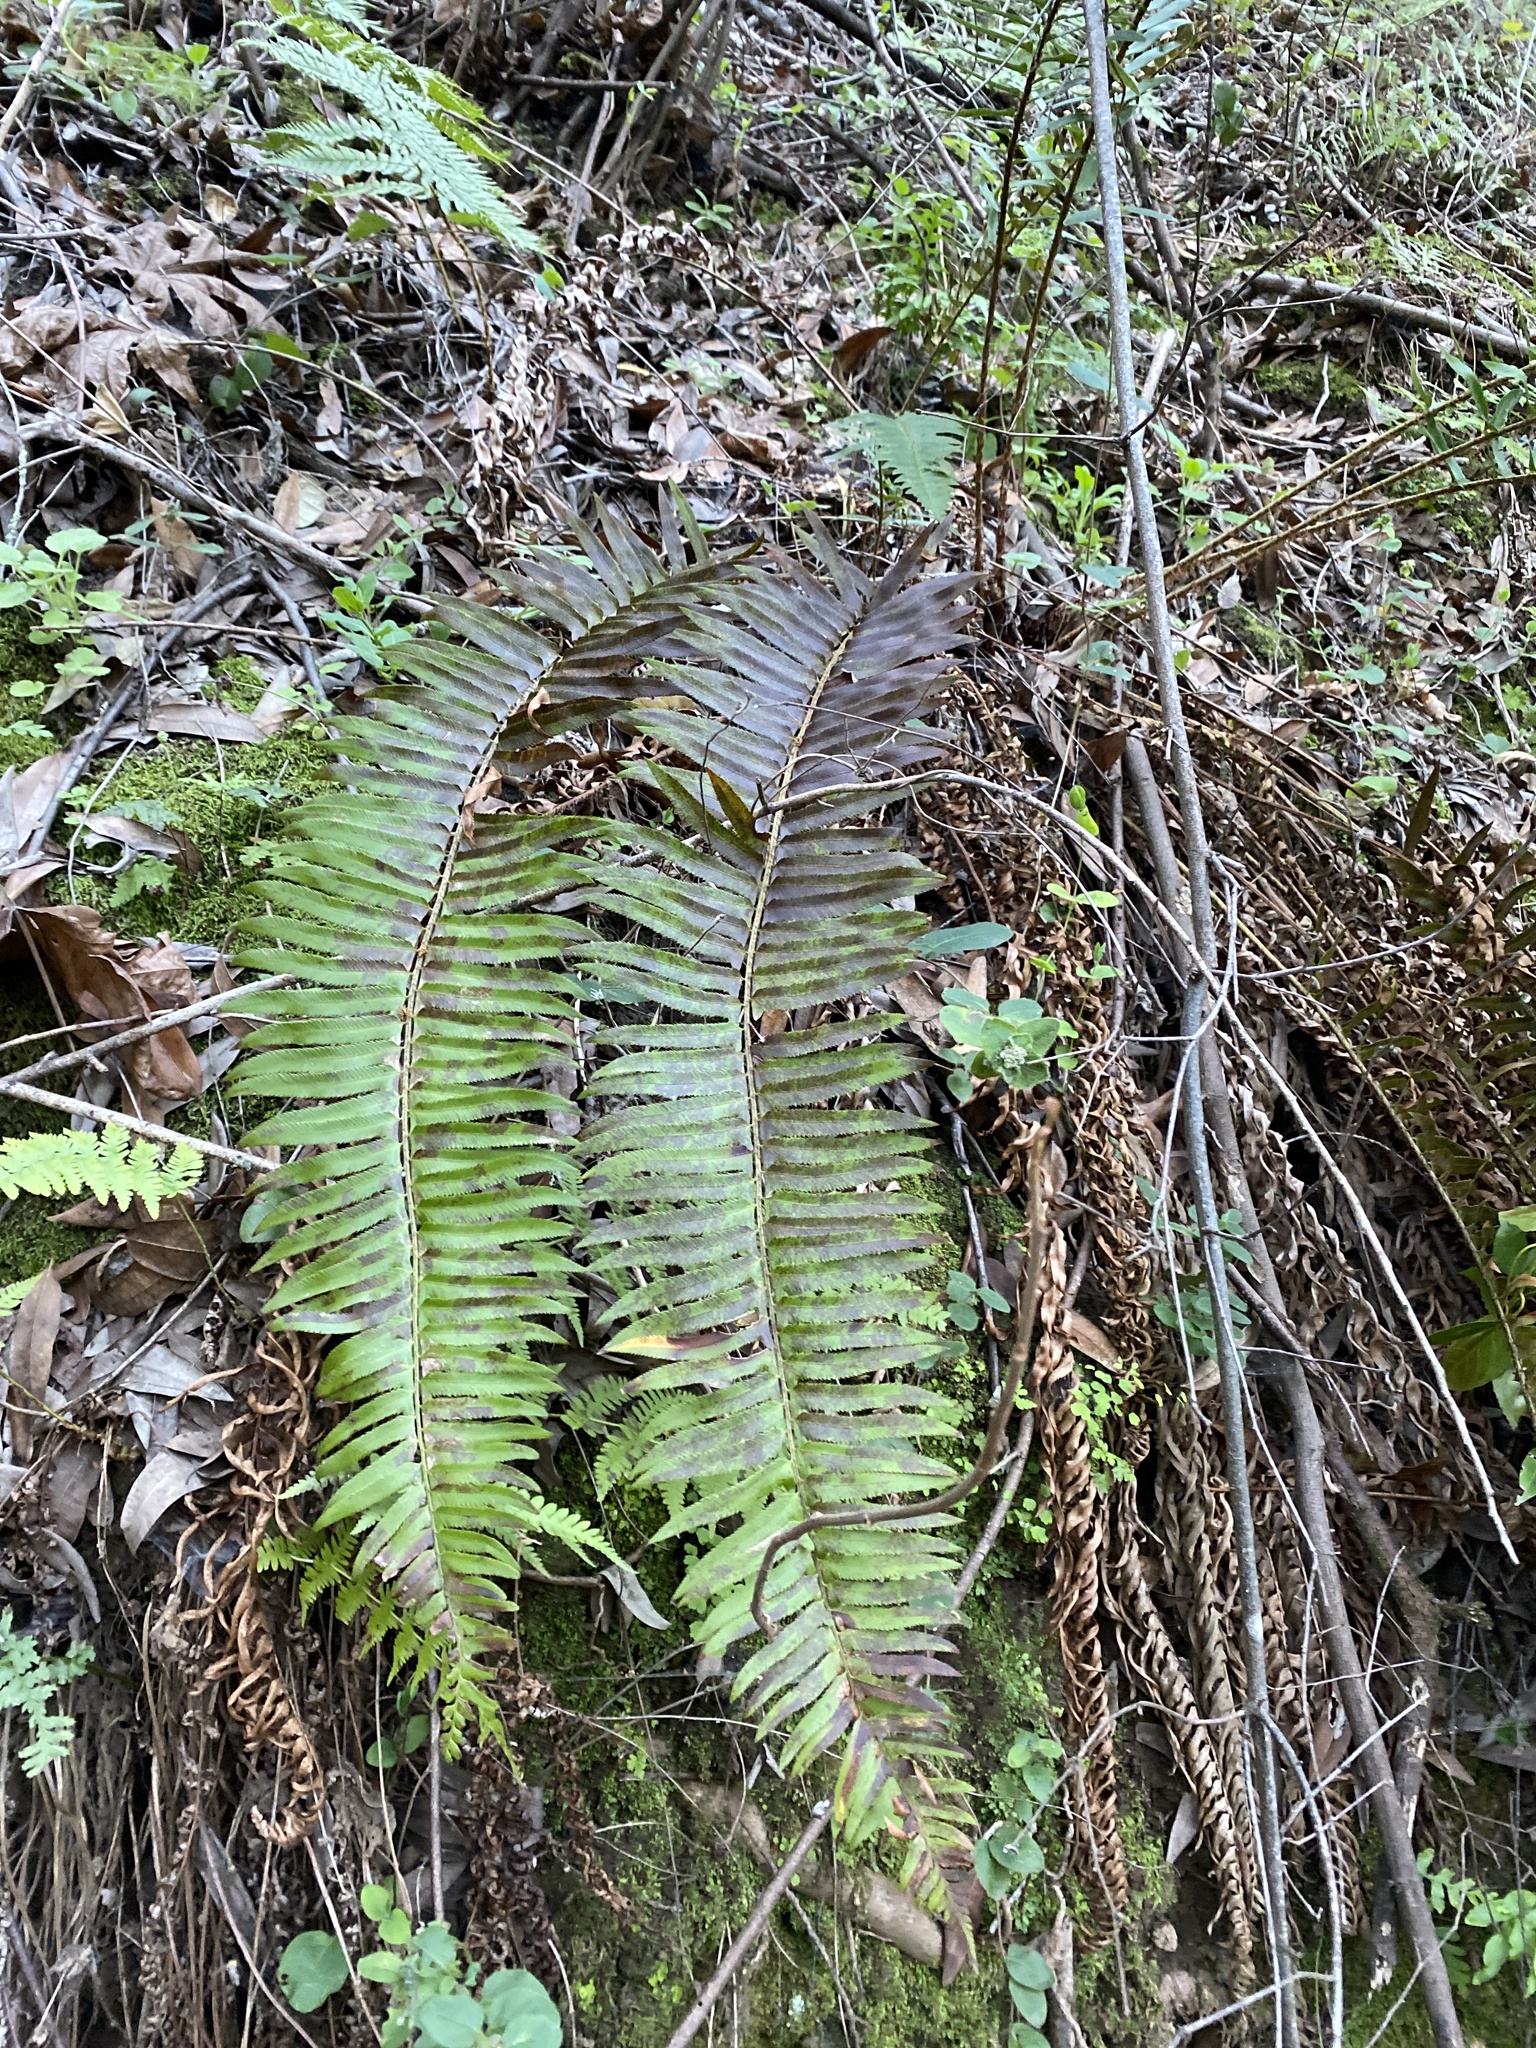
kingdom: Plantae
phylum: Tracheophyta
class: Polypodiopsida
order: Polypodiales
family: Dryopteridaceae
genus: Polystichum
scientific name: Polystichum munitum
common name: Western sword-fern
